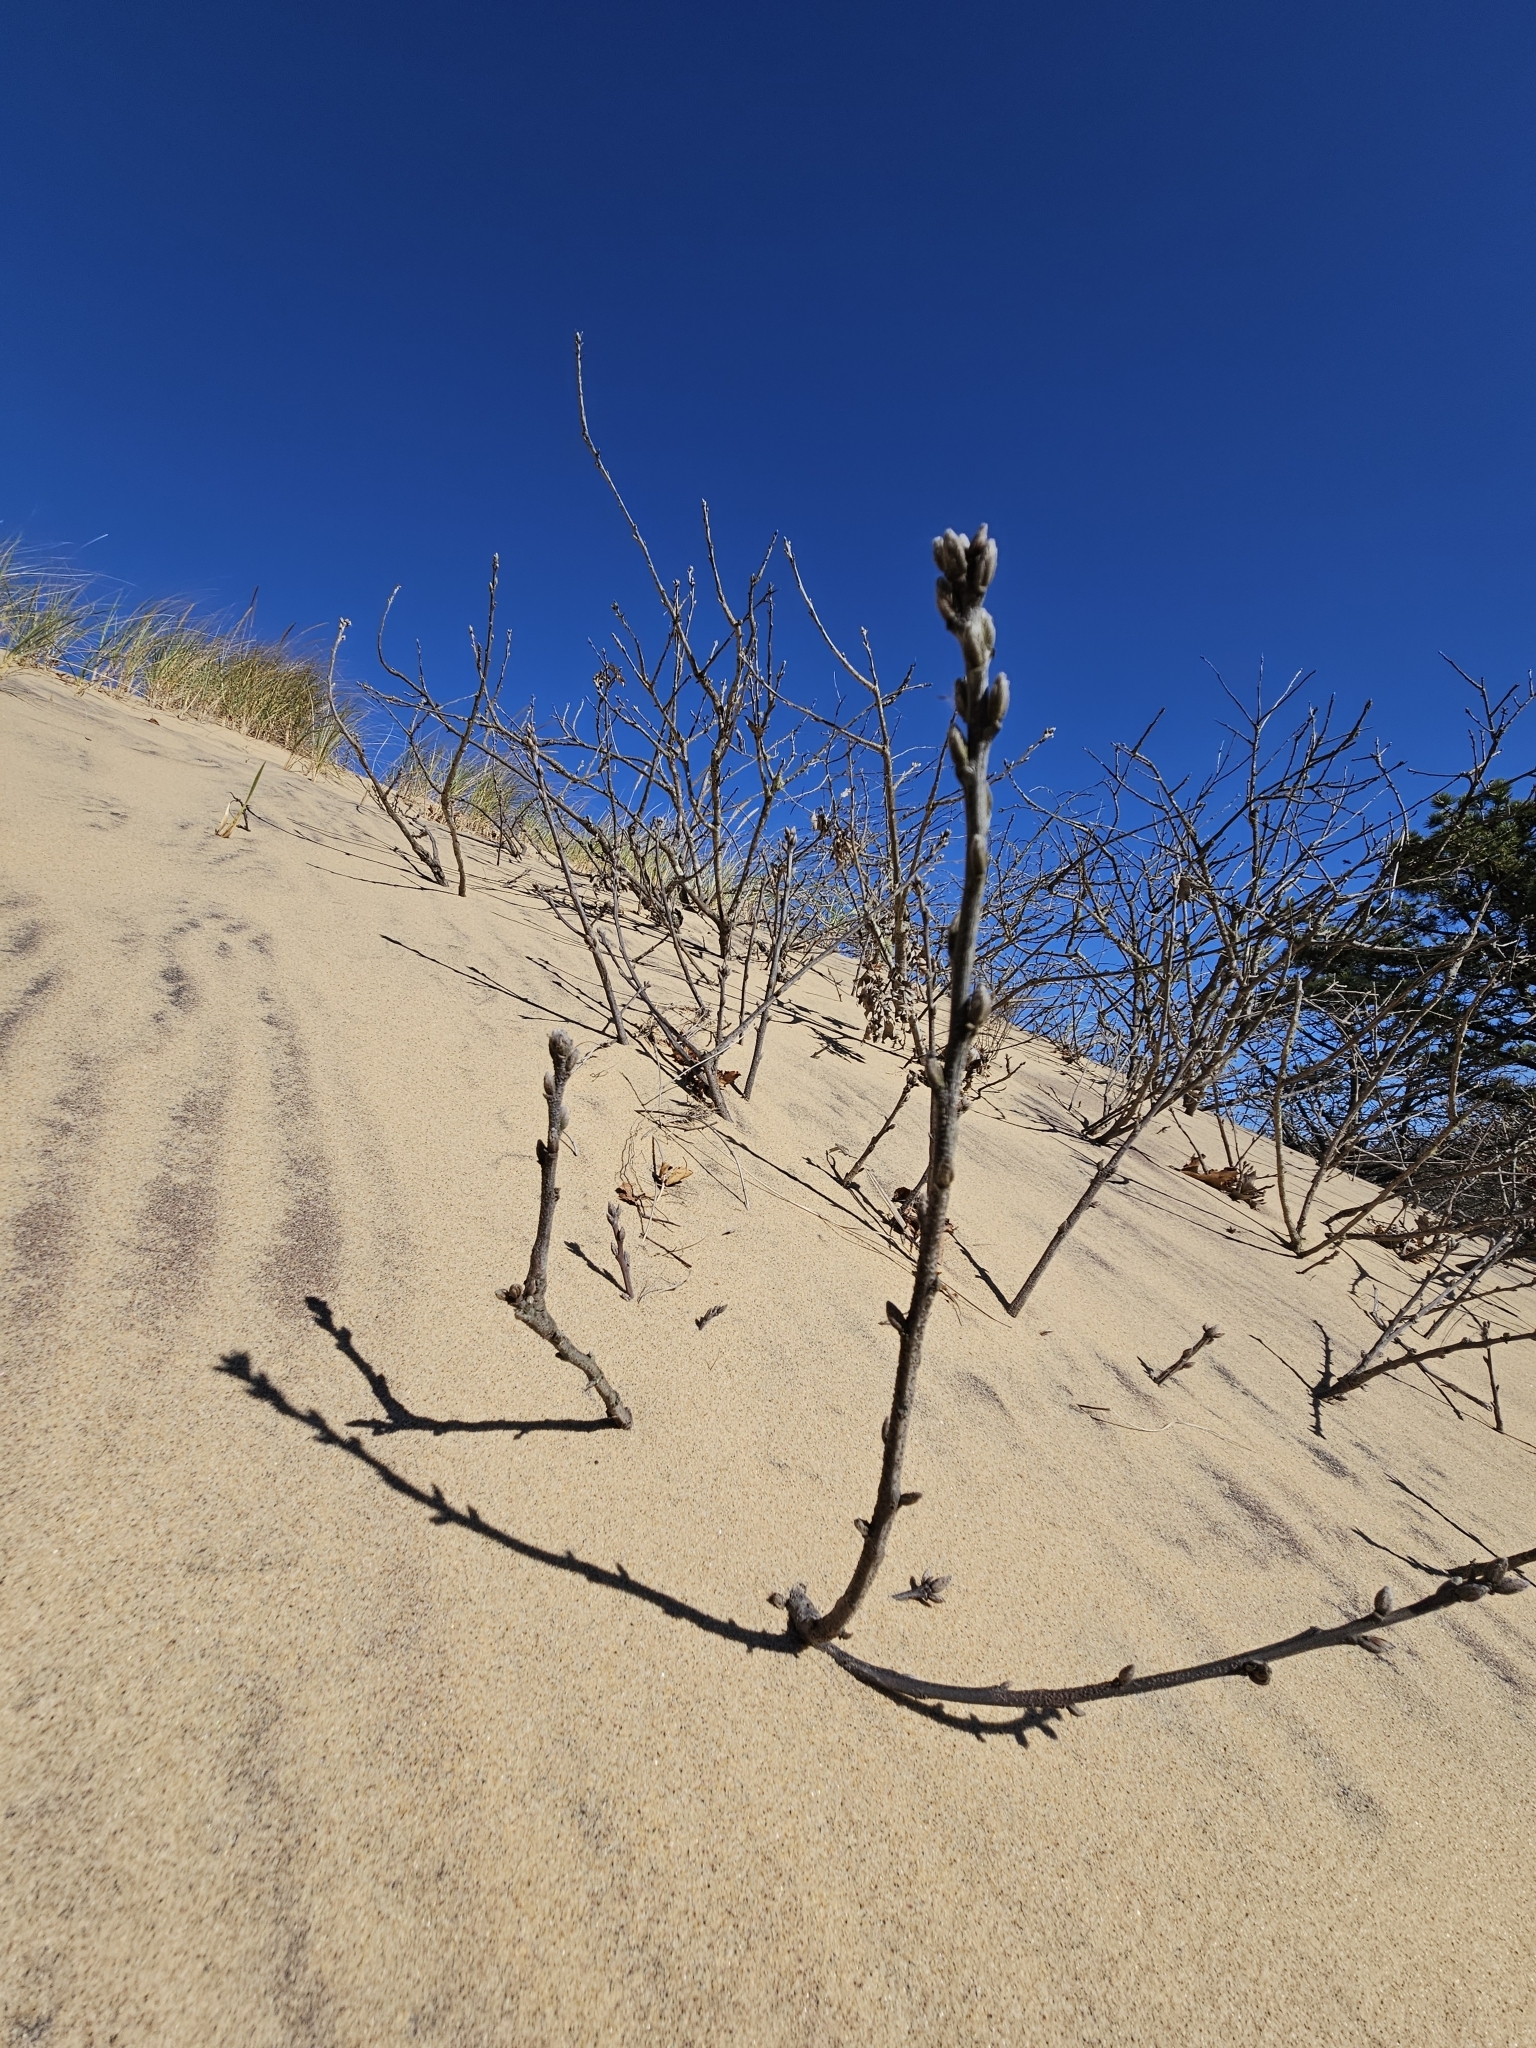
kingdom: Plantae
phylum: Tracheophyta
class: Magnoliopsida
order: Fagales
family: Fagaceae
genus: Quercus
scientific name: Quercus velutina
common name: Black oak
